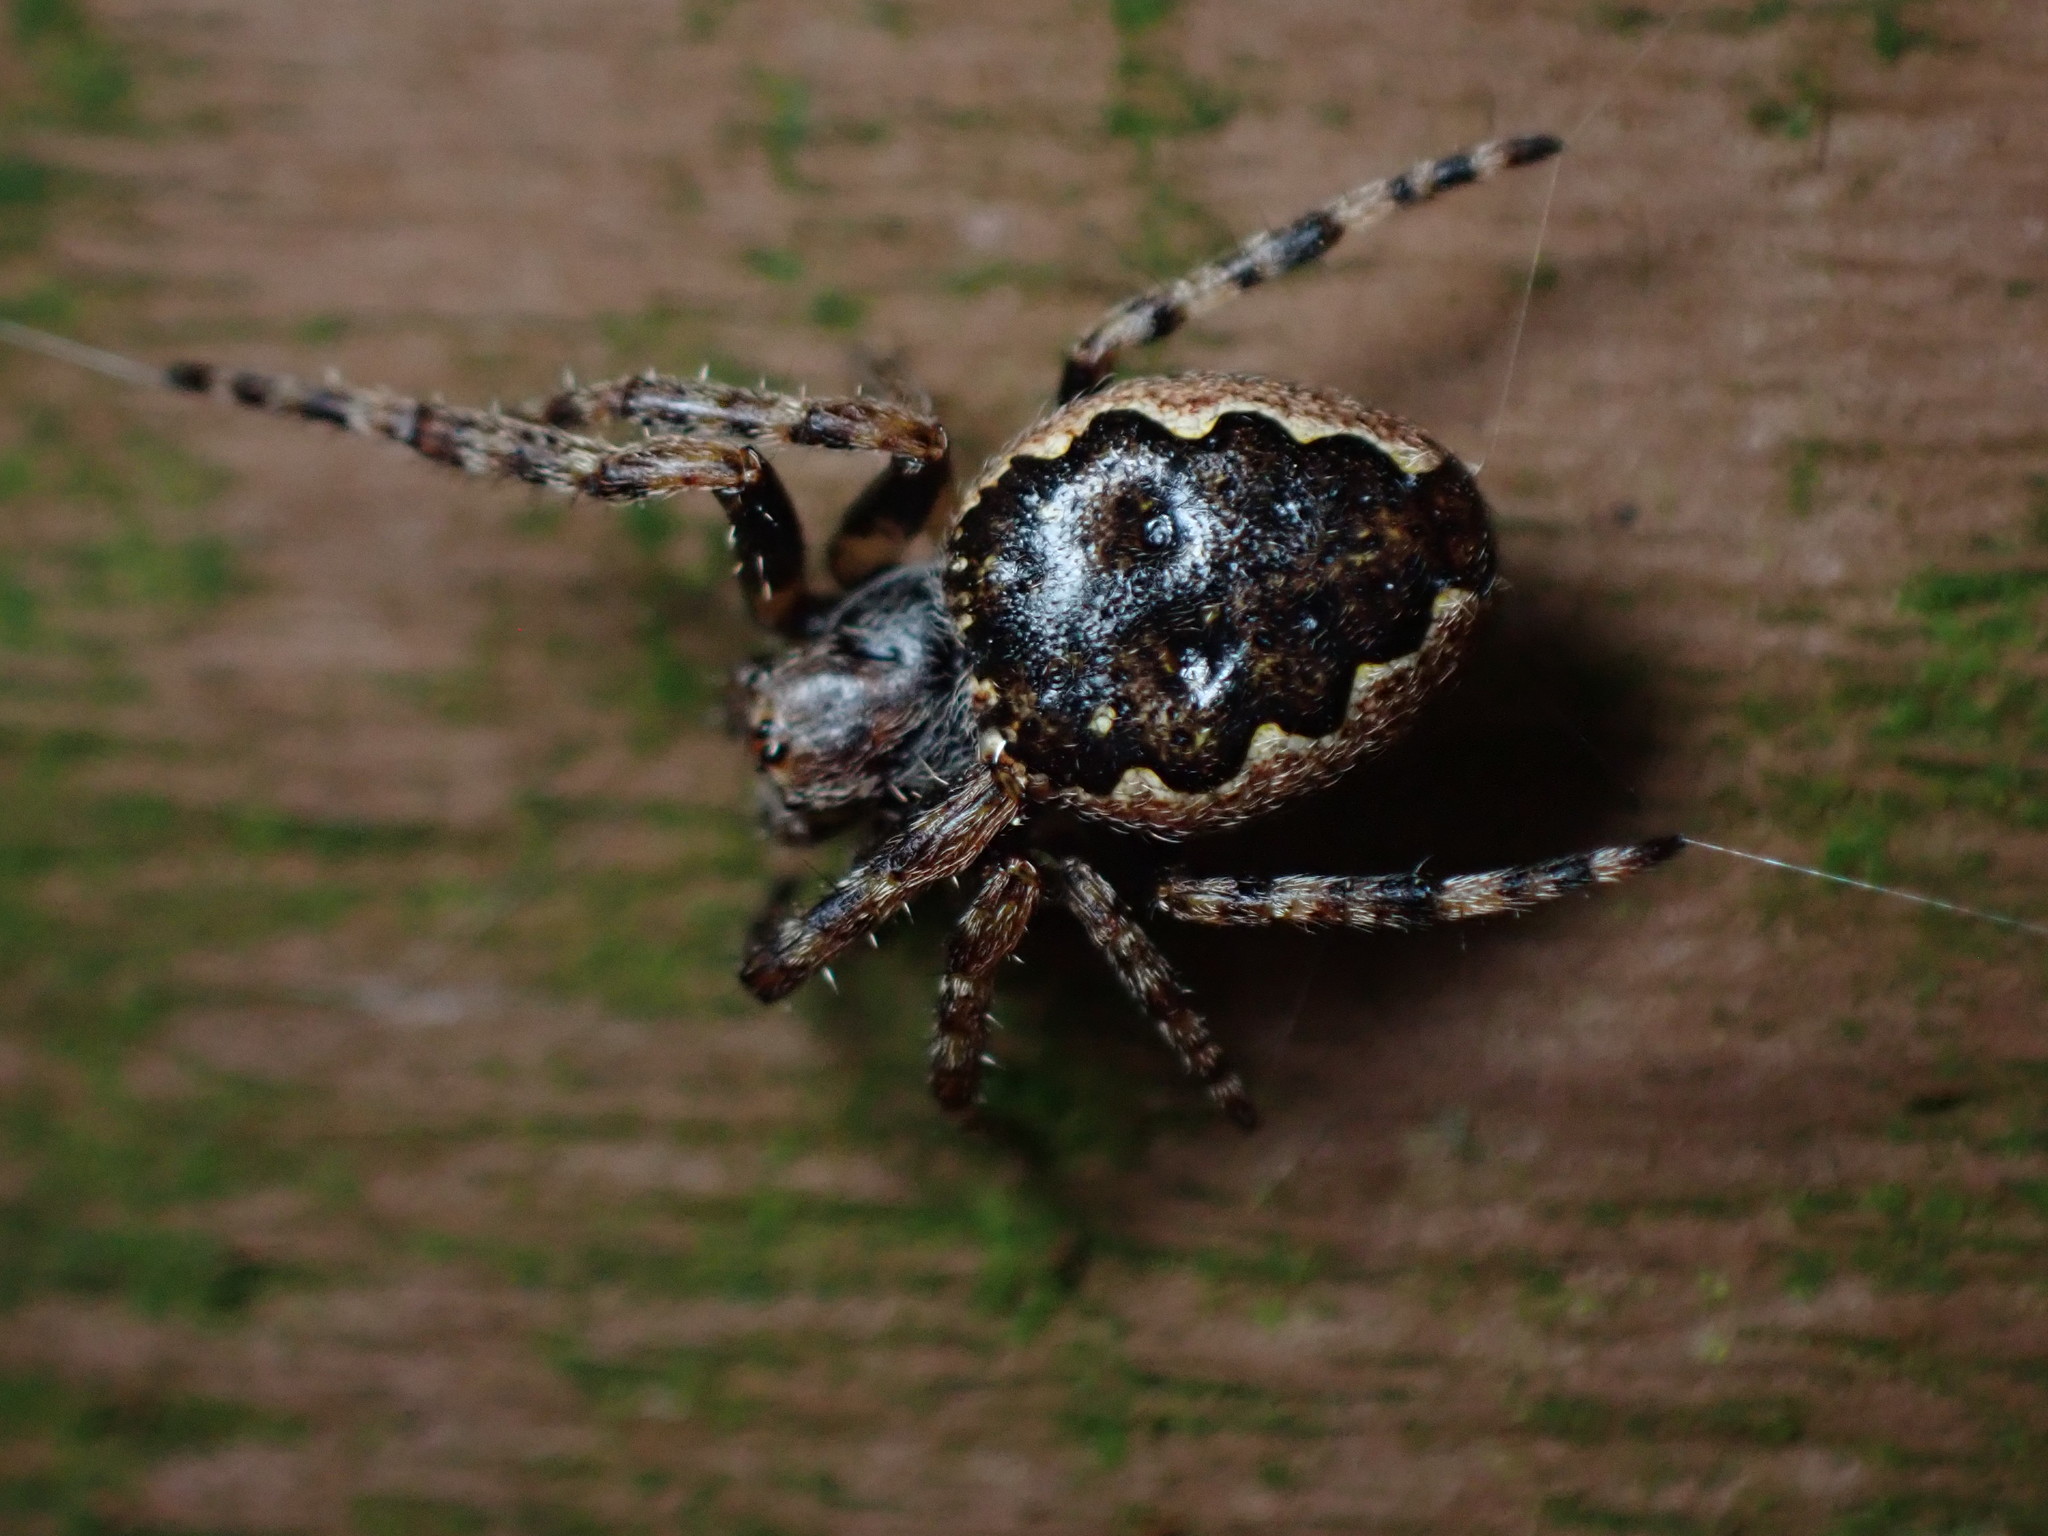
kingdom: Animalia
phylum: Arthropoda
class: Arachnida
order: Araneae
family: Araneidae
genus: Nuctenea
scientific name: Nuctenea umbratica
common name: Toad spider
